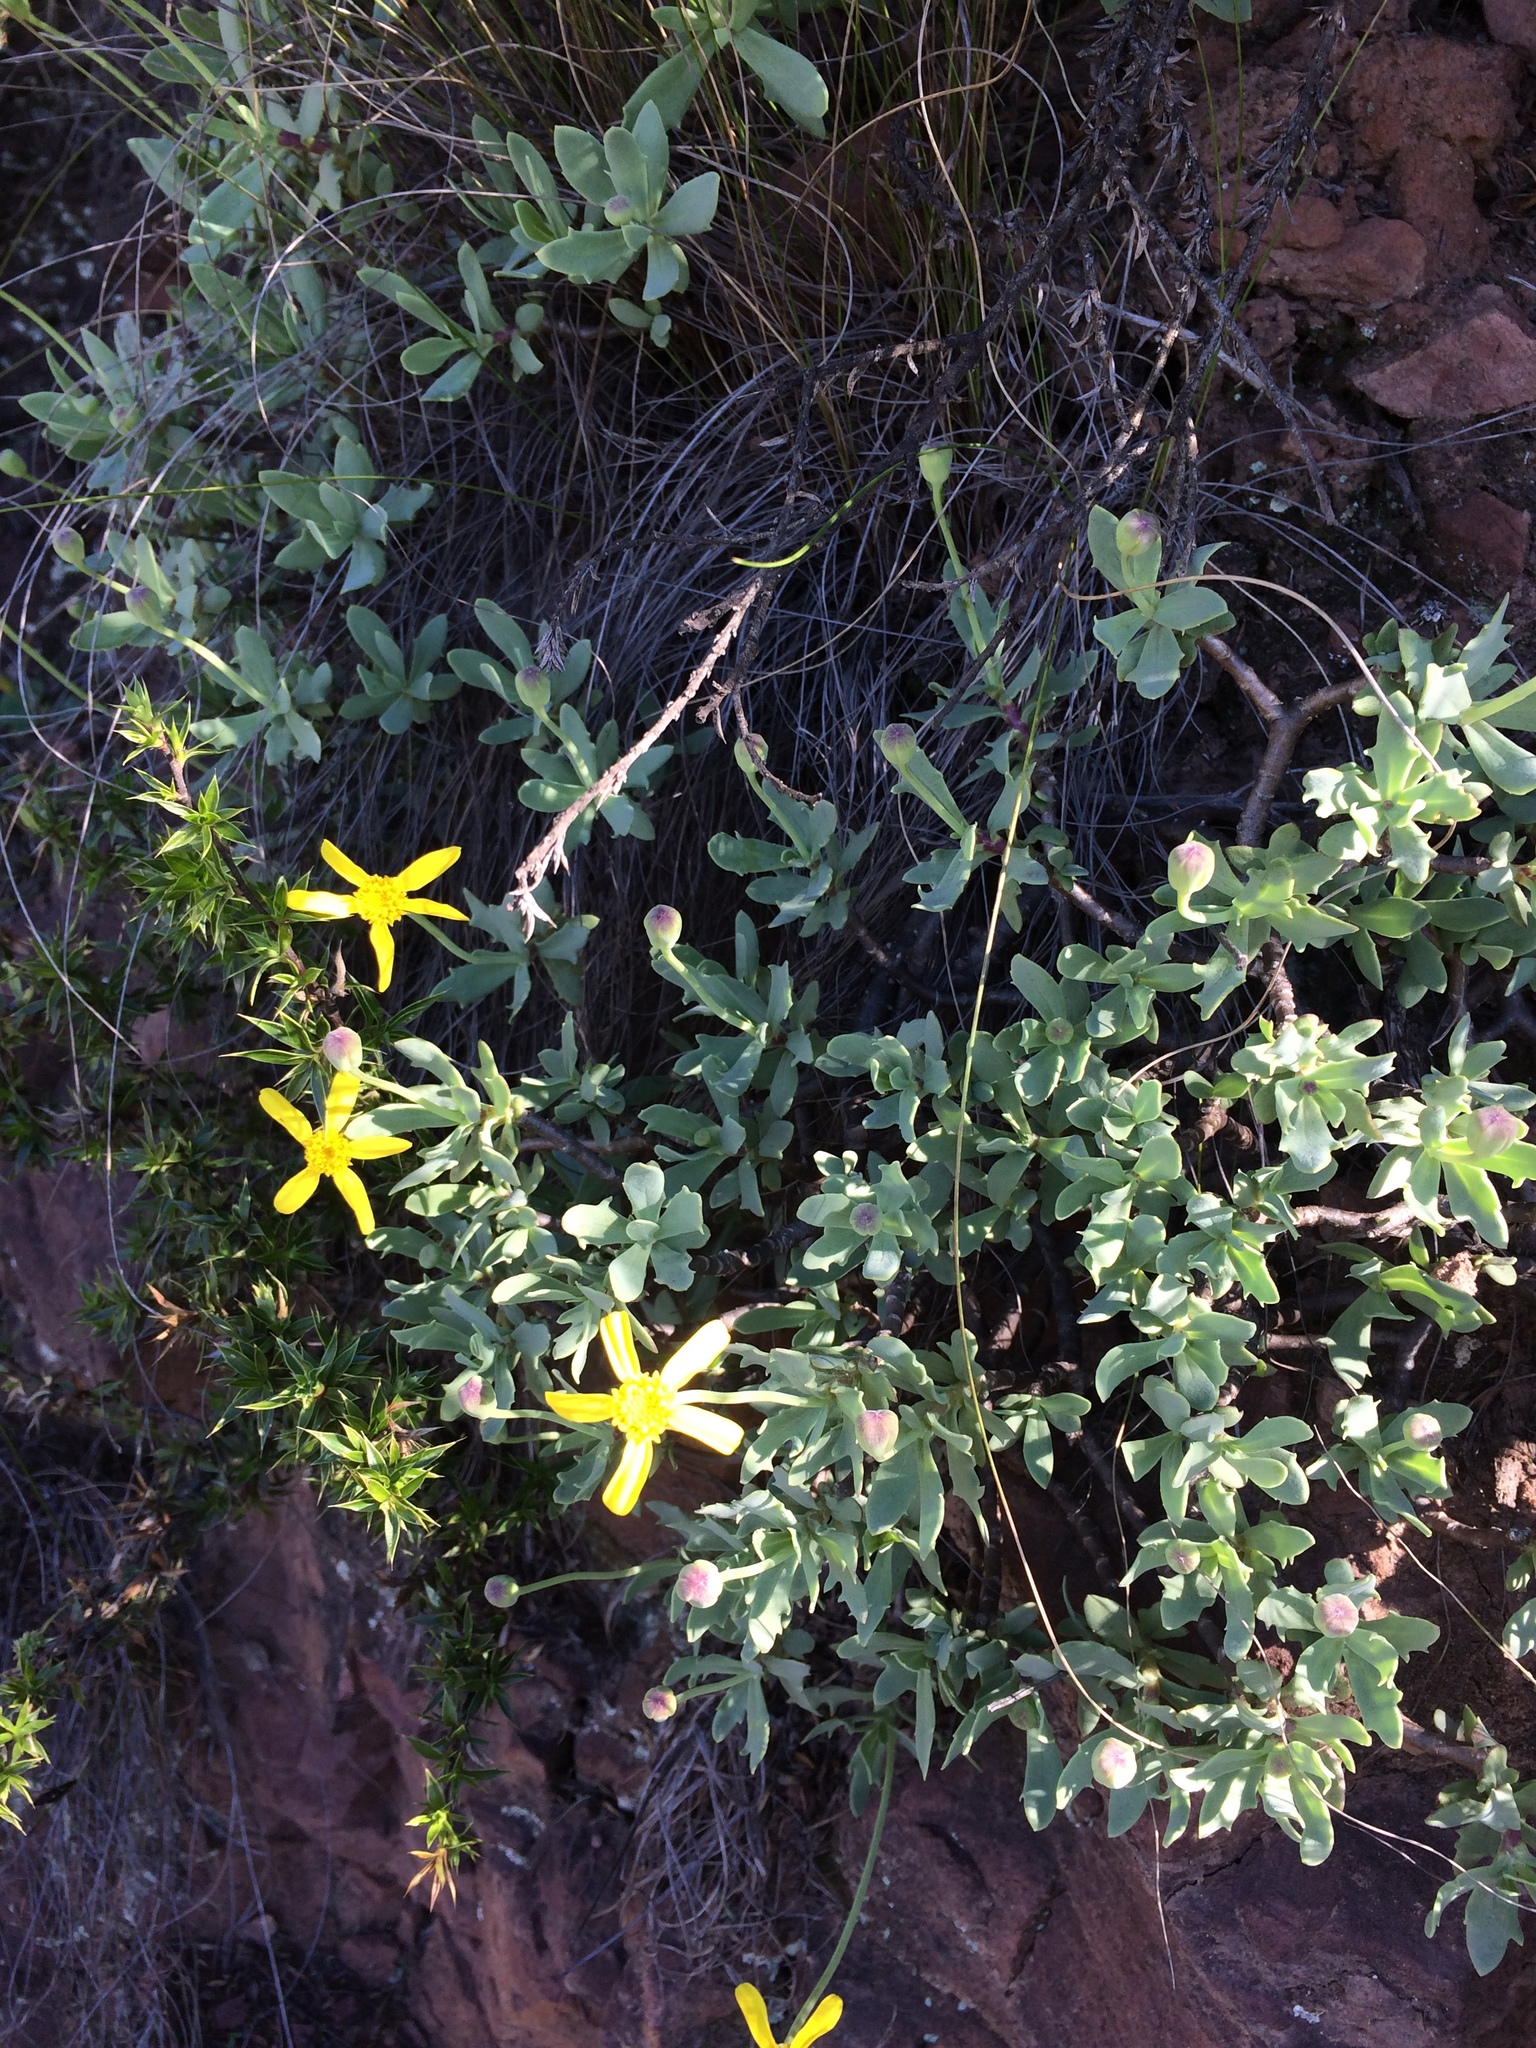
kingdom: Plantae
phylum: Tracheophyta
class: Magnoliopsida
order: Asterales
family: Asteraceae
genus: Othonna
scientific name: Othonna arborescens
